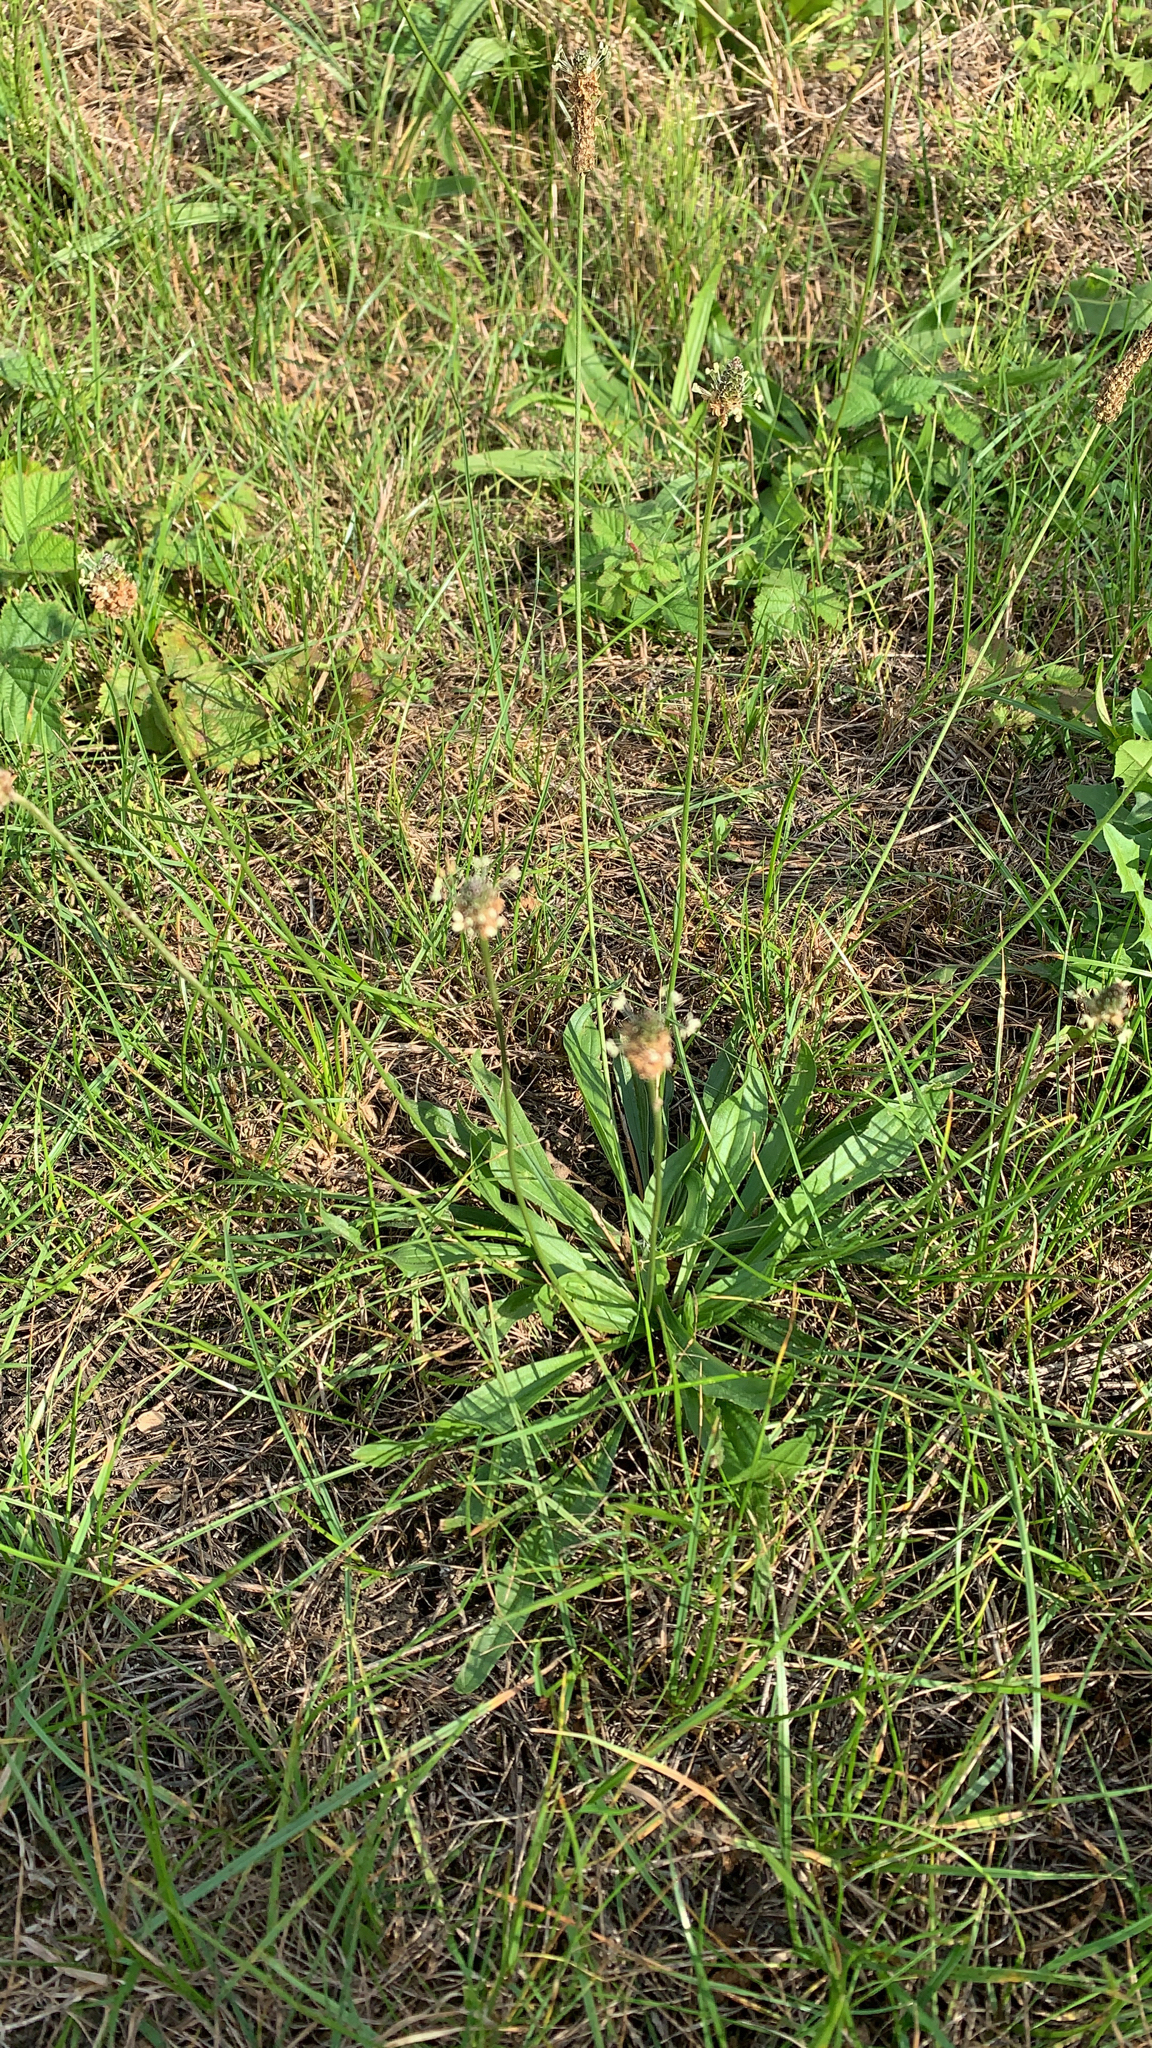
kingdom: Plantae
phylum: Tracheophyta
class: Magnoliopsida
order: Lamiales
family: Plantaginaceae
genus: Plantago
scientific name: Plantago lanceolata
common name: Ribwort plantain
